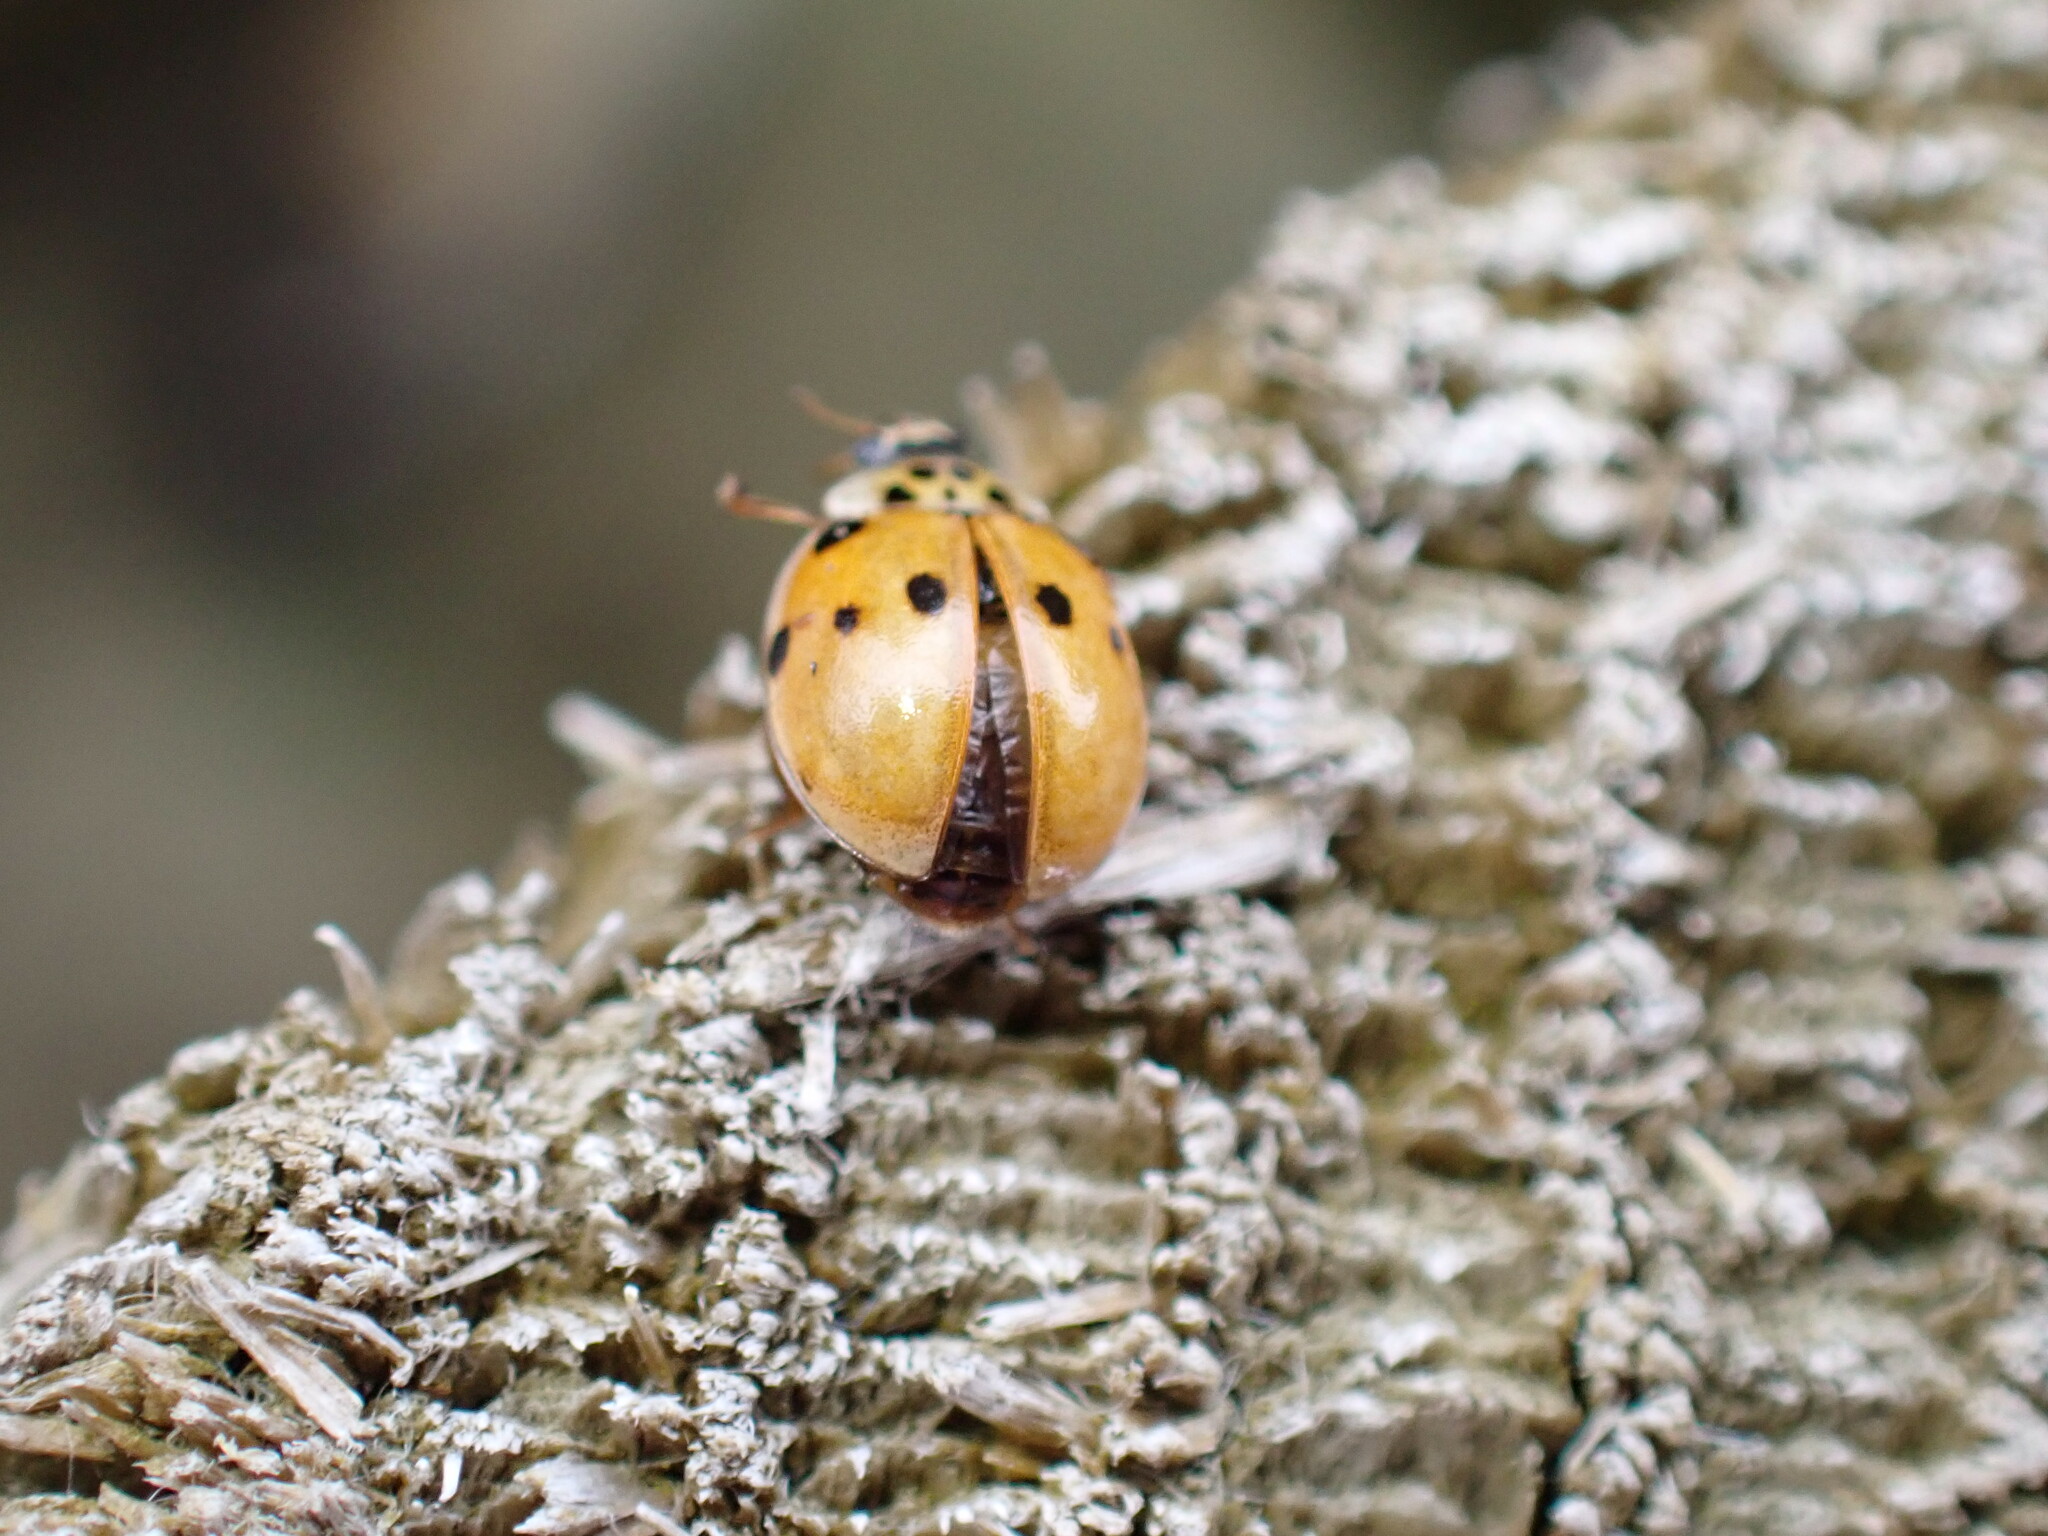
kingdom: Animalia
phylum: Arthropoda
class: Insecta
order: Coleoptera
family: Coccinellidae
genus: Adalia
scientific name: Adalia decempunctata
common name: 10-spot ladybird
